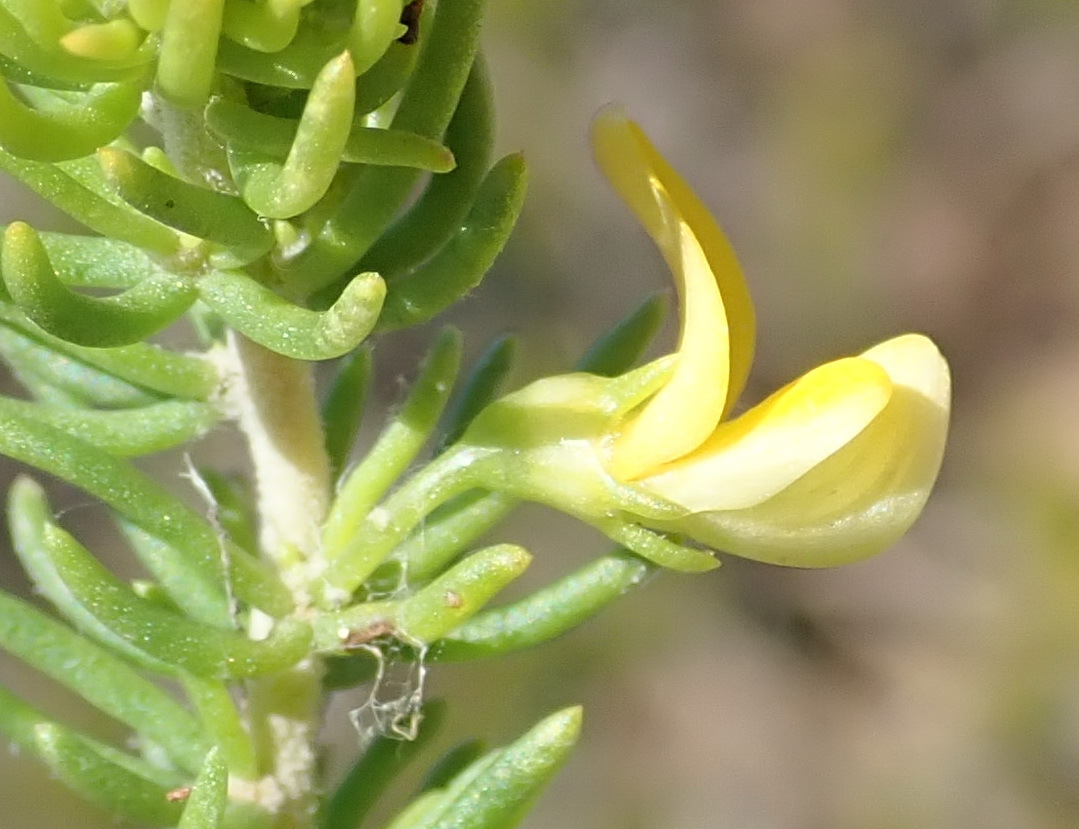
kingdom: Plantae
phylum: Tracheophyta
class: Magnoliopsida
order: Fabales
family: Fabaceae
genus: Aspalathus
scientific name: Aspalathus sanguinea
